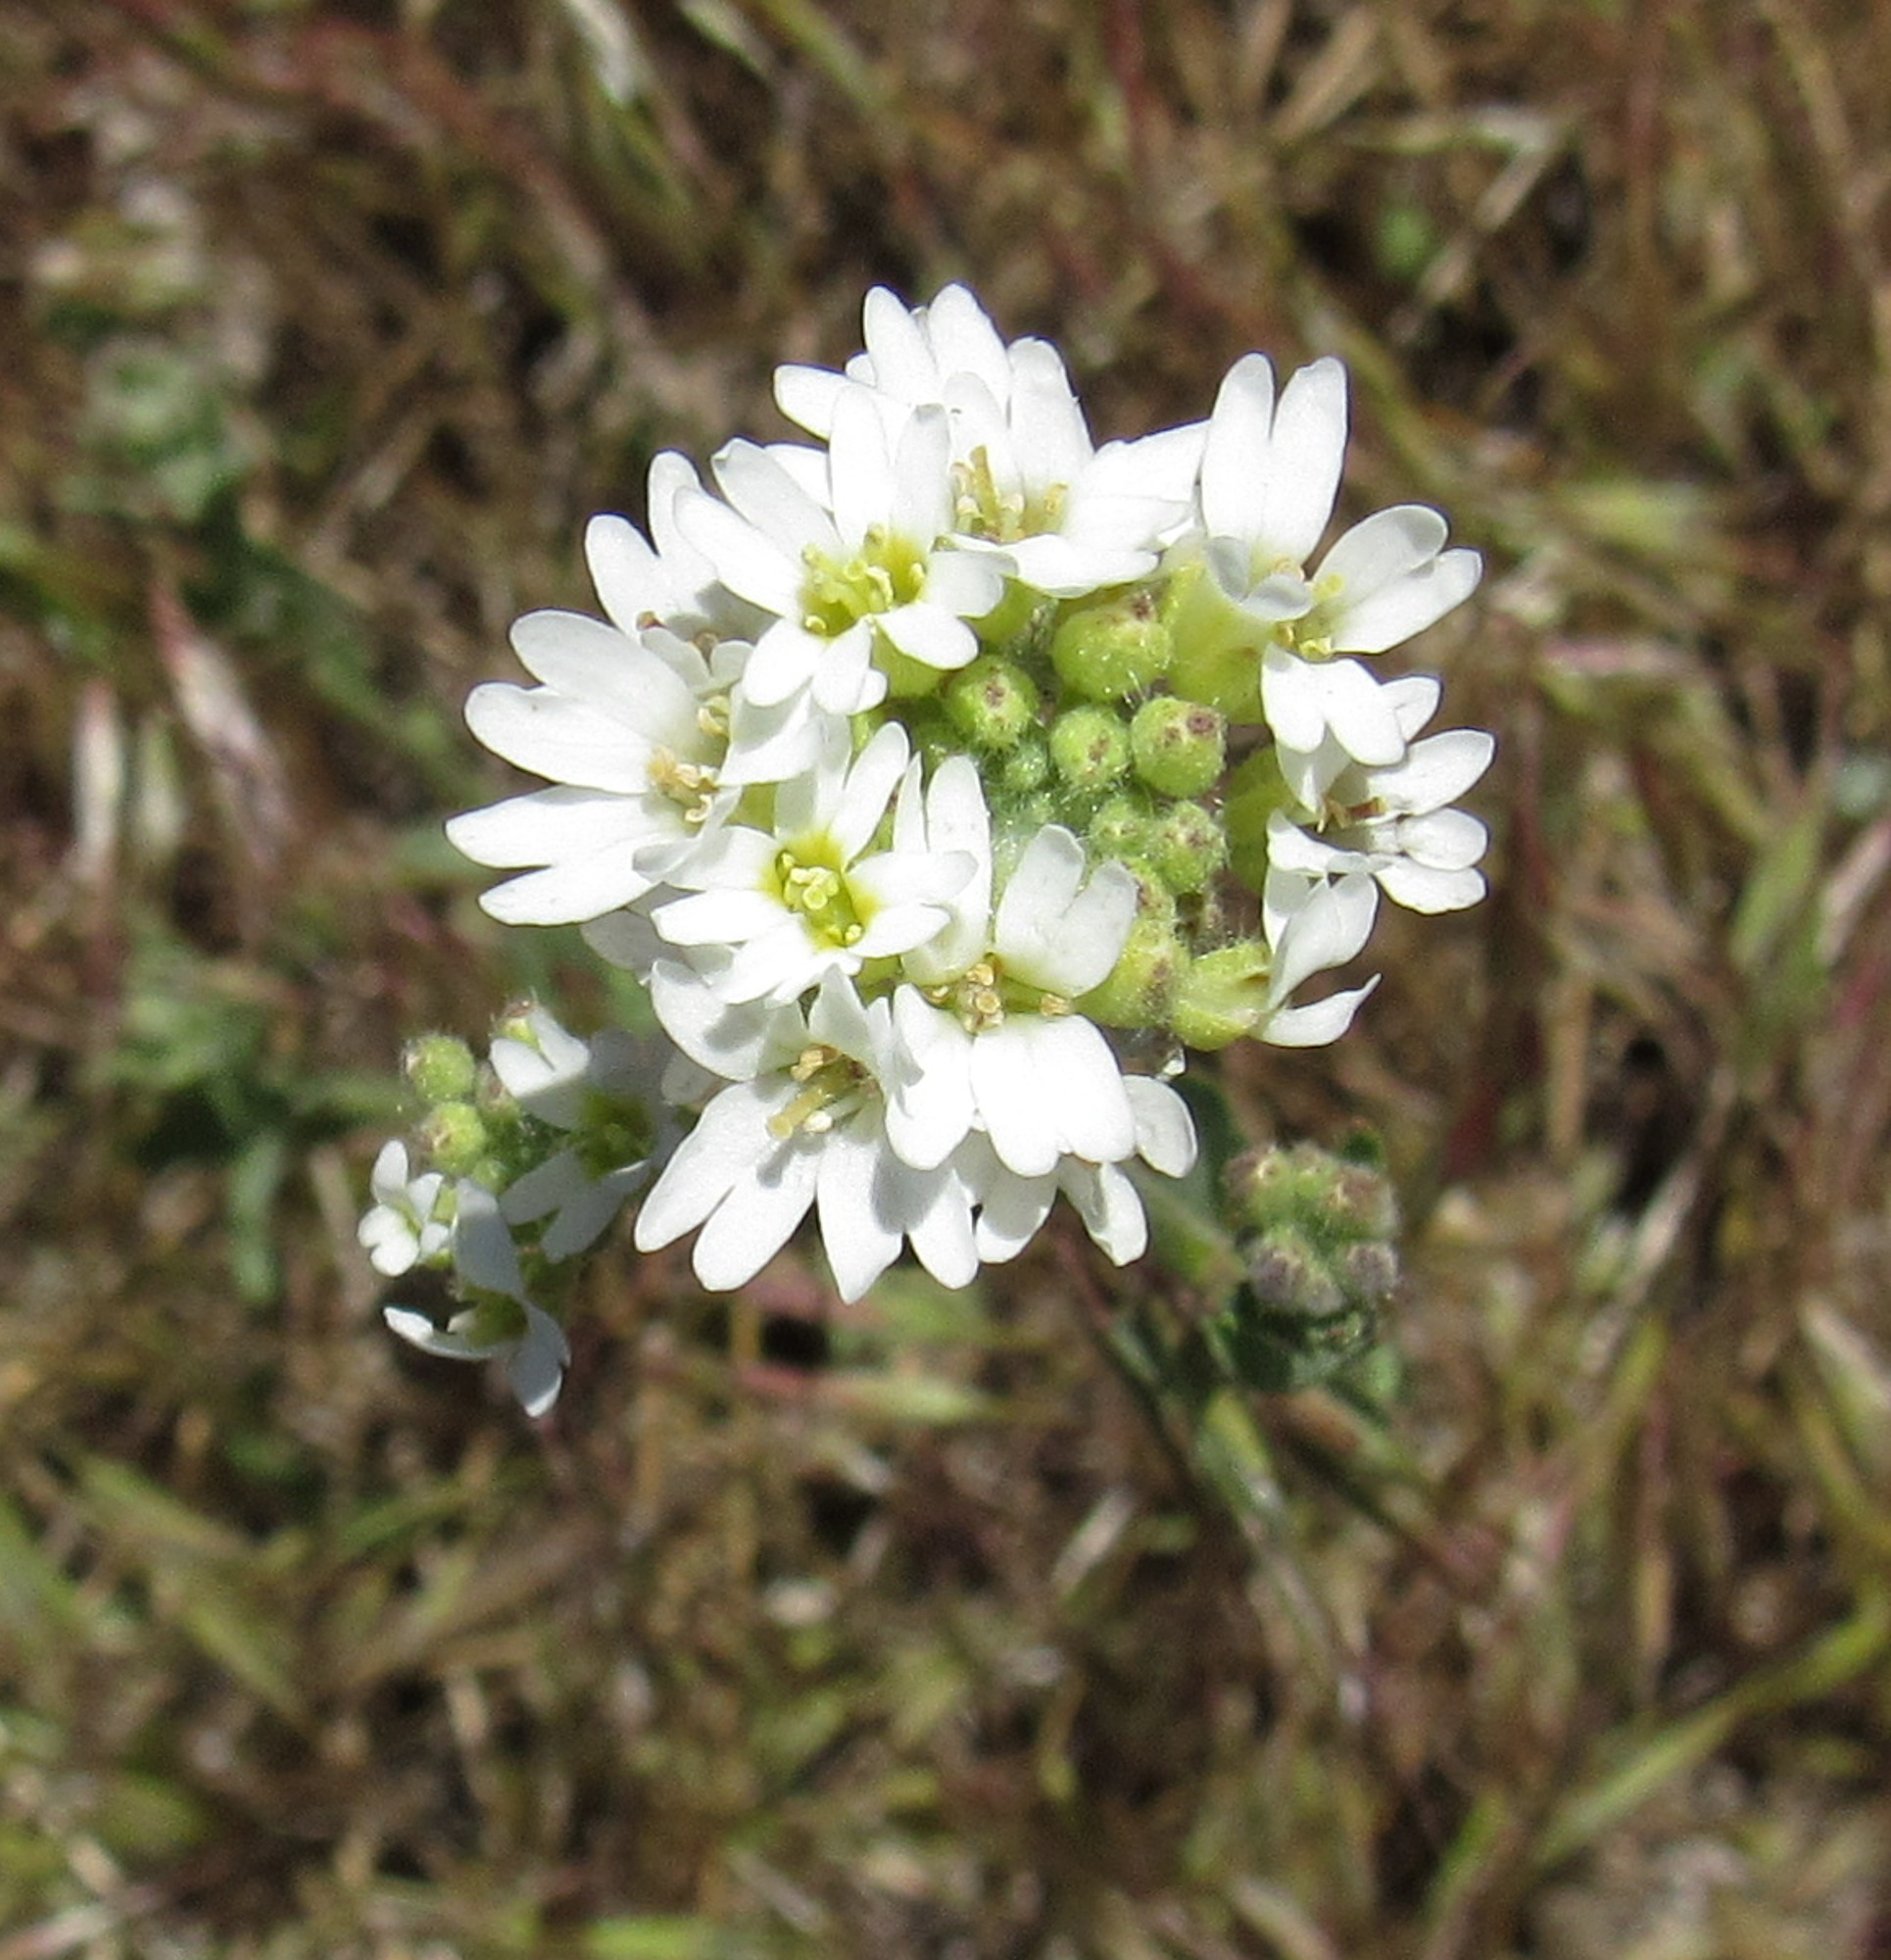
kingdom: Plantae
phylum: Tracheophyta
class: Magnoliopsida
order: Brassicales
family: Brassicaceae
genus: Berteroa
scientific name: Berteroa incana
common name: Hoary alison
